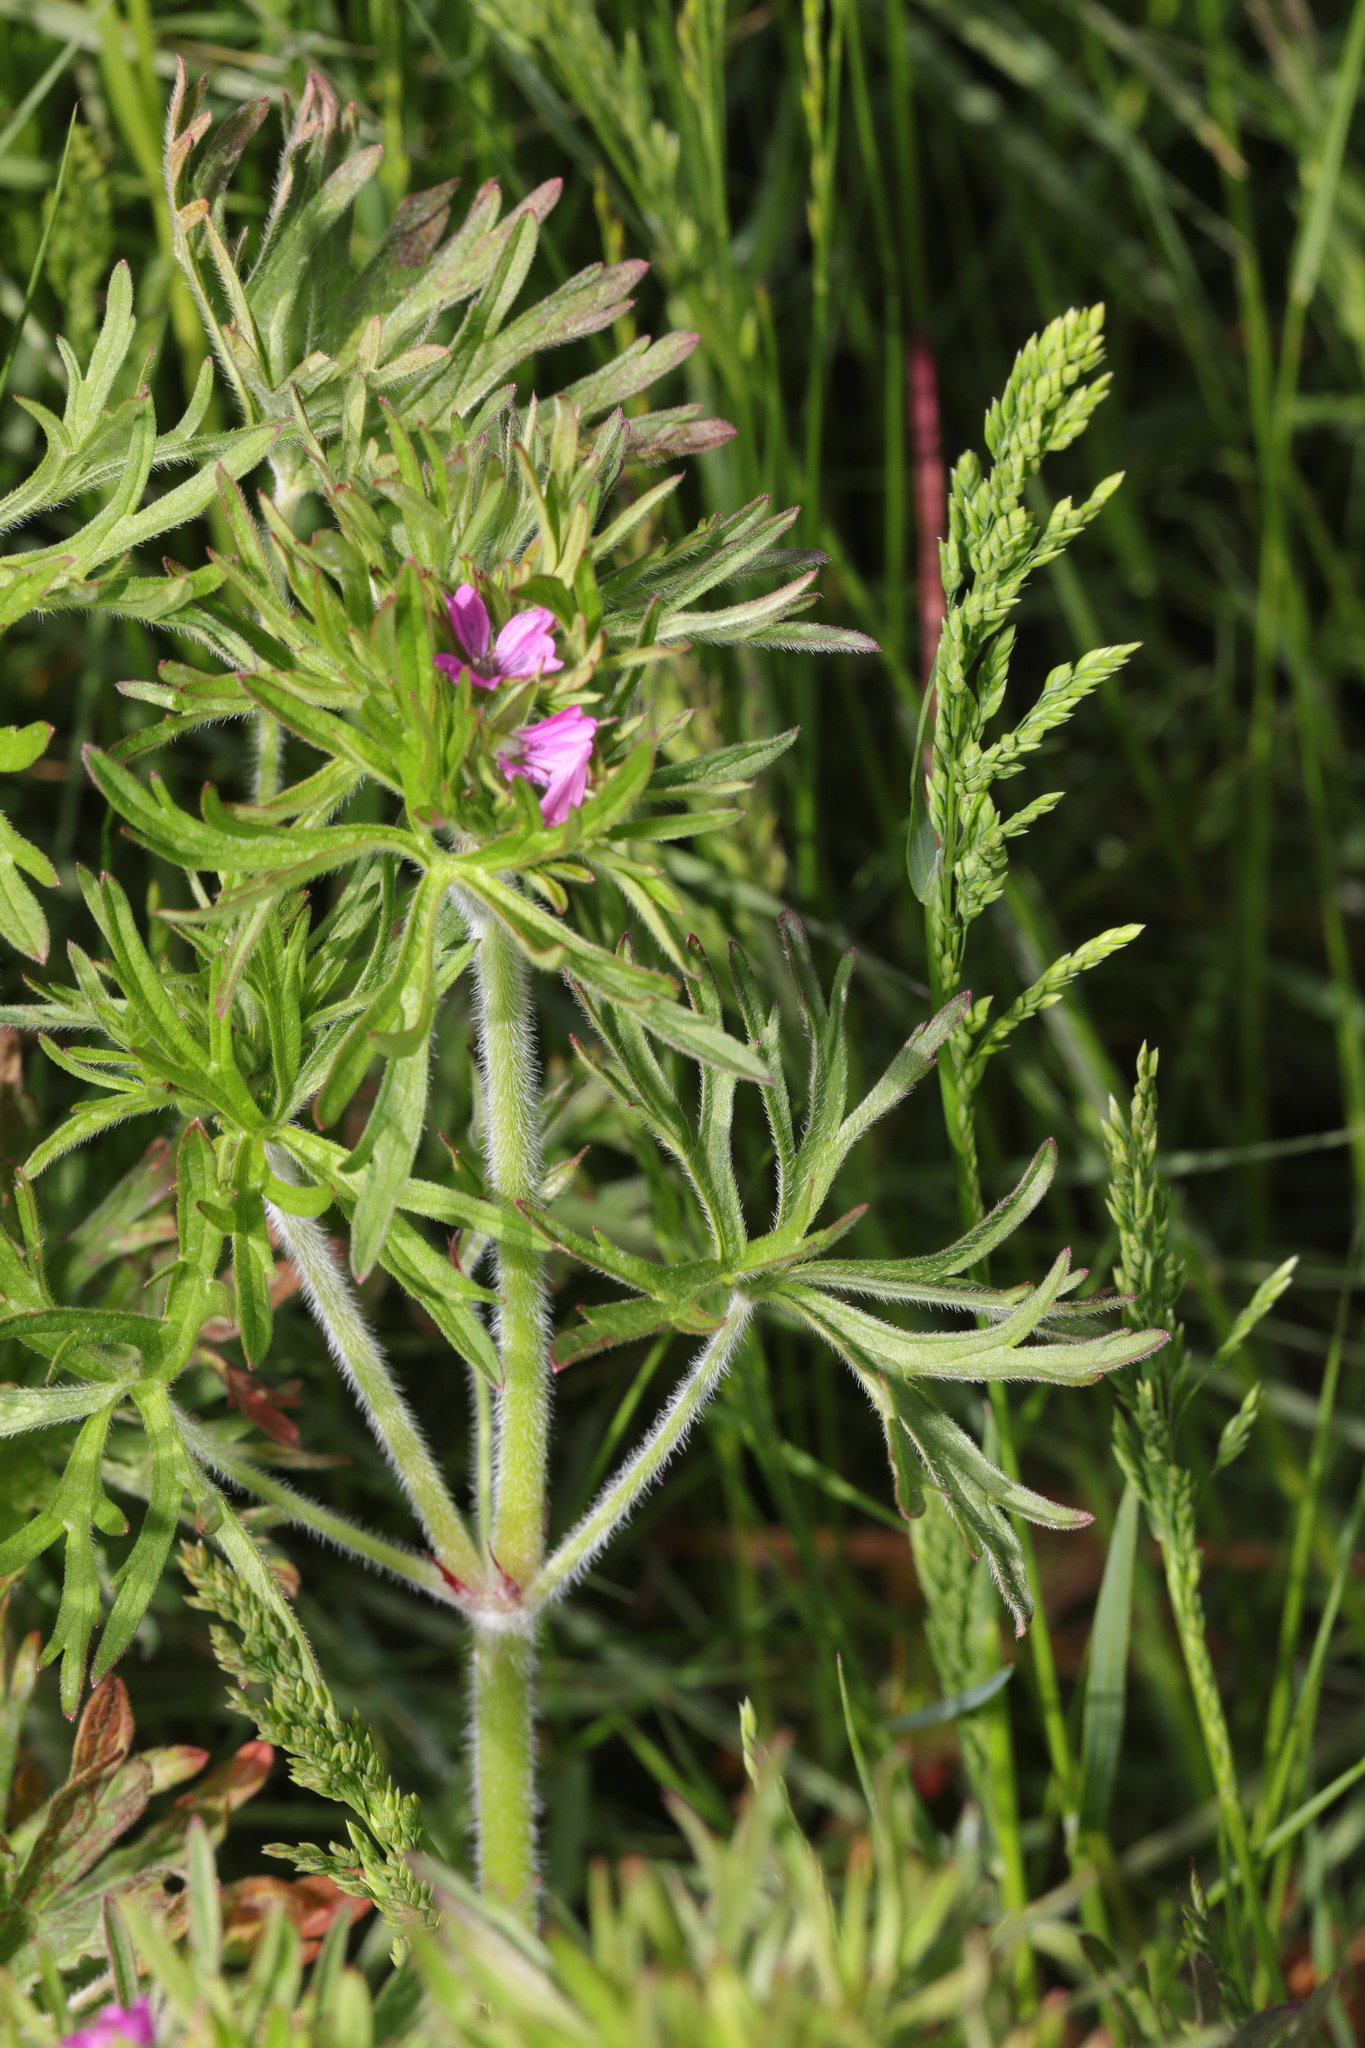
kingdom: Plantae
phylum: Tracheophyta
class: Magnoliopsida
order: Geraniales
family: Geraniaceae
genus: Geranium
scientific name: Geranium dissectum
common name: Cut-leaved crane's-bill
